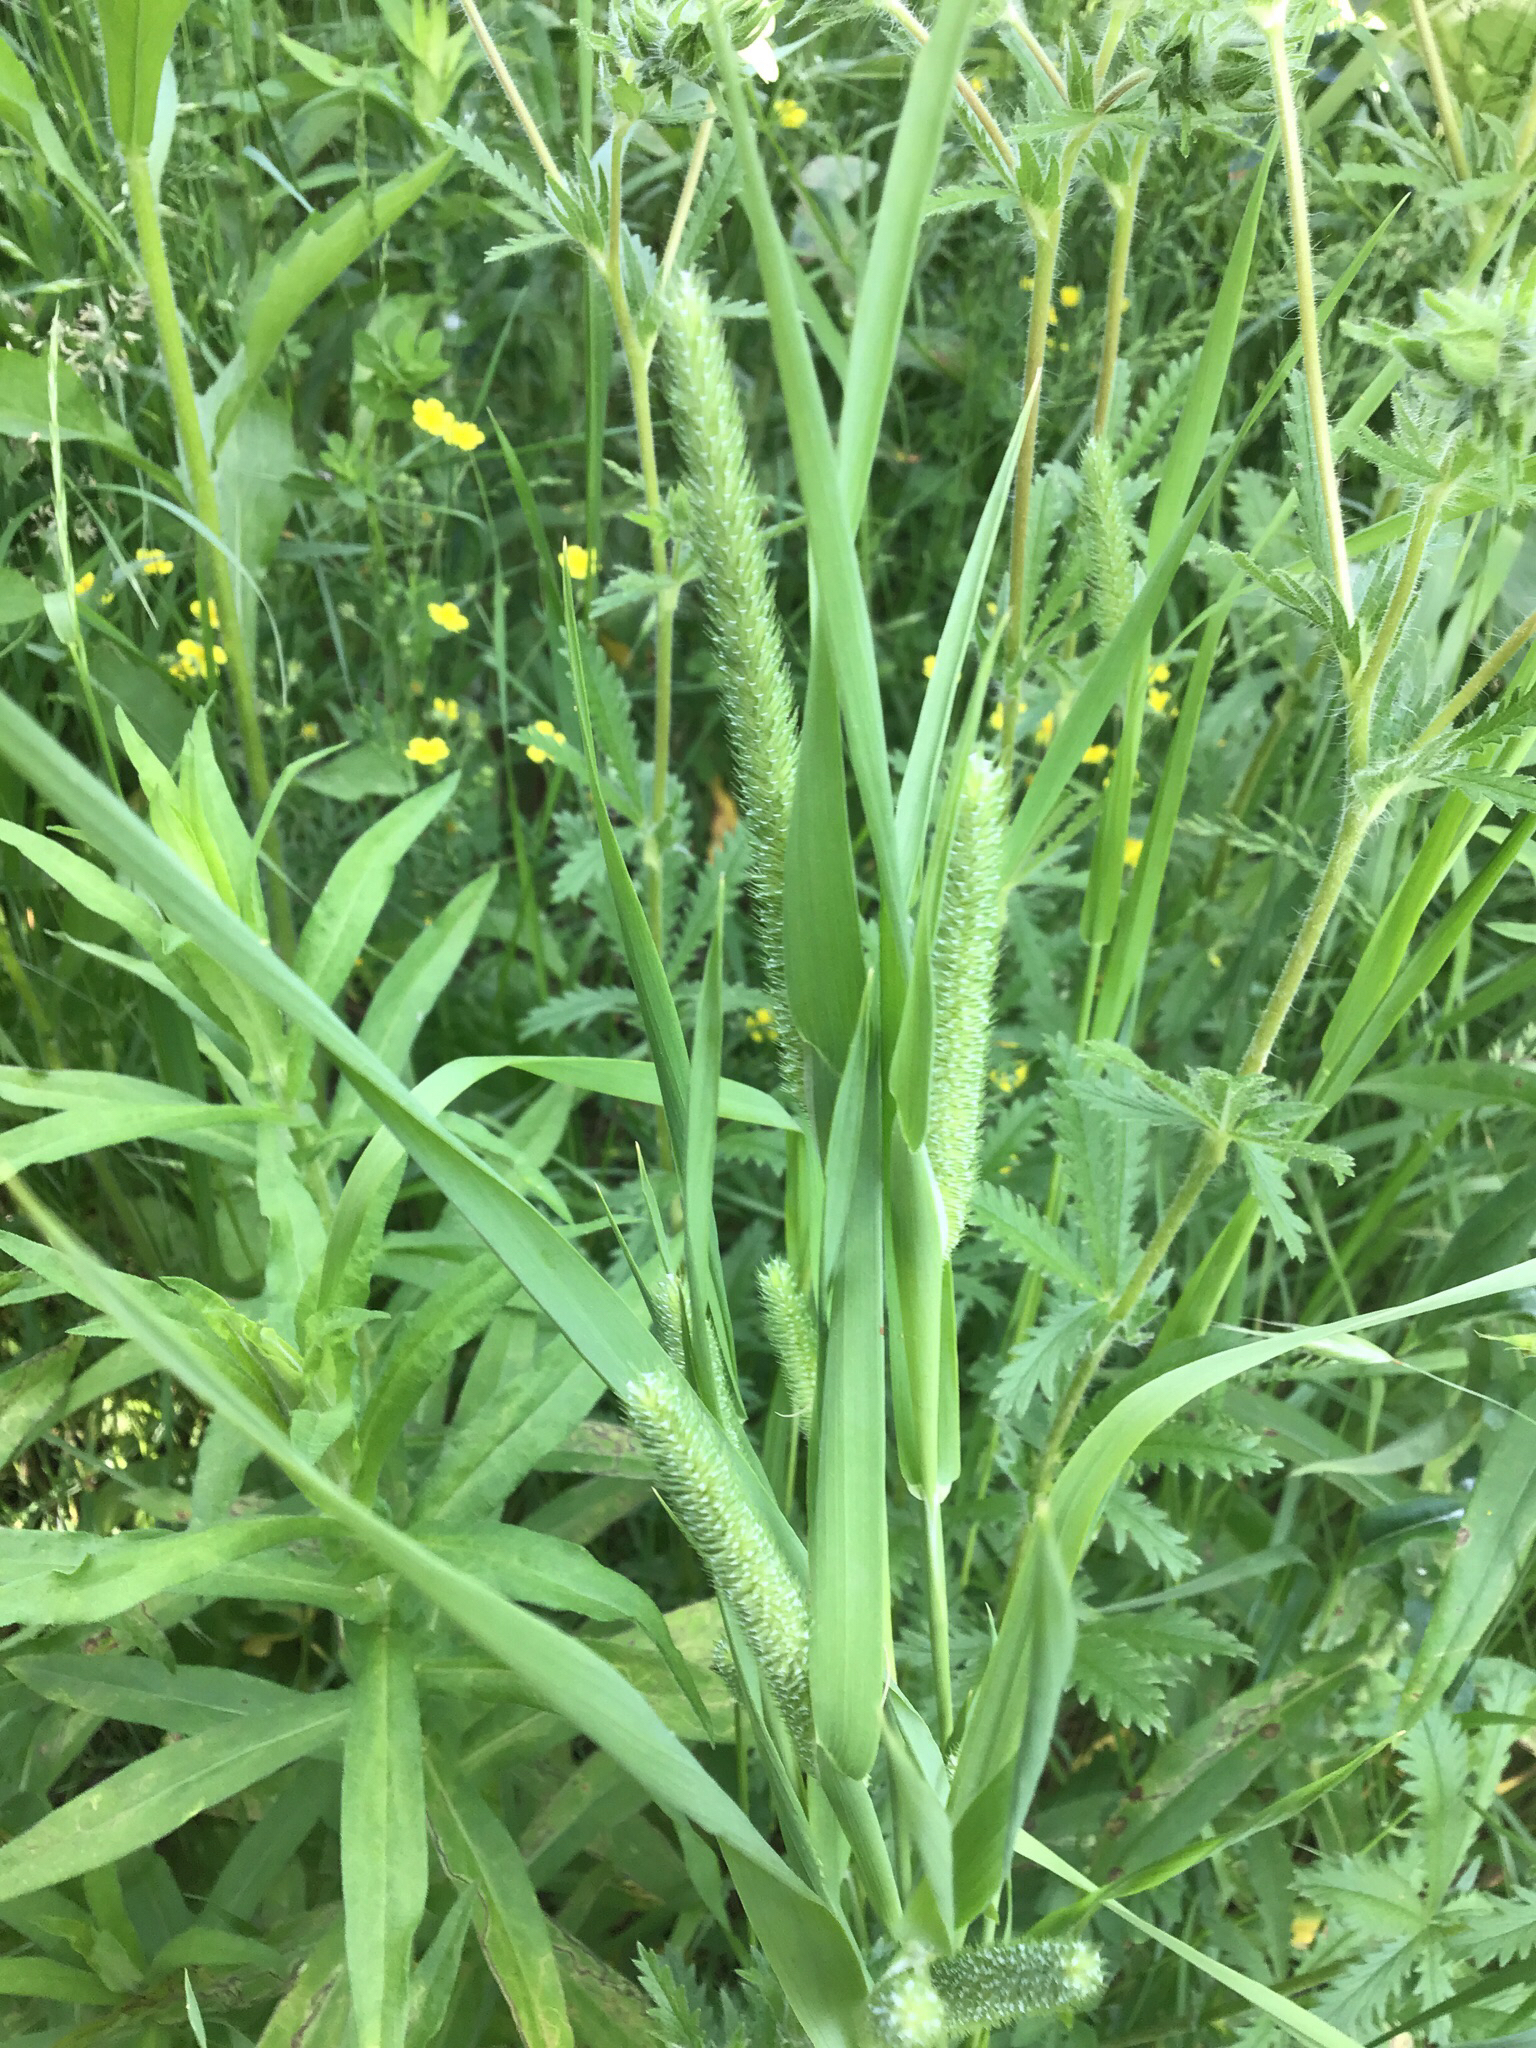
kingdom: Plantae
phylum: Tracheophyta
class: Liliopsida
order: Poales
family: Poaceae
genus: Phleum
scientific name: Phleum pratense
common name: Timothy grass
